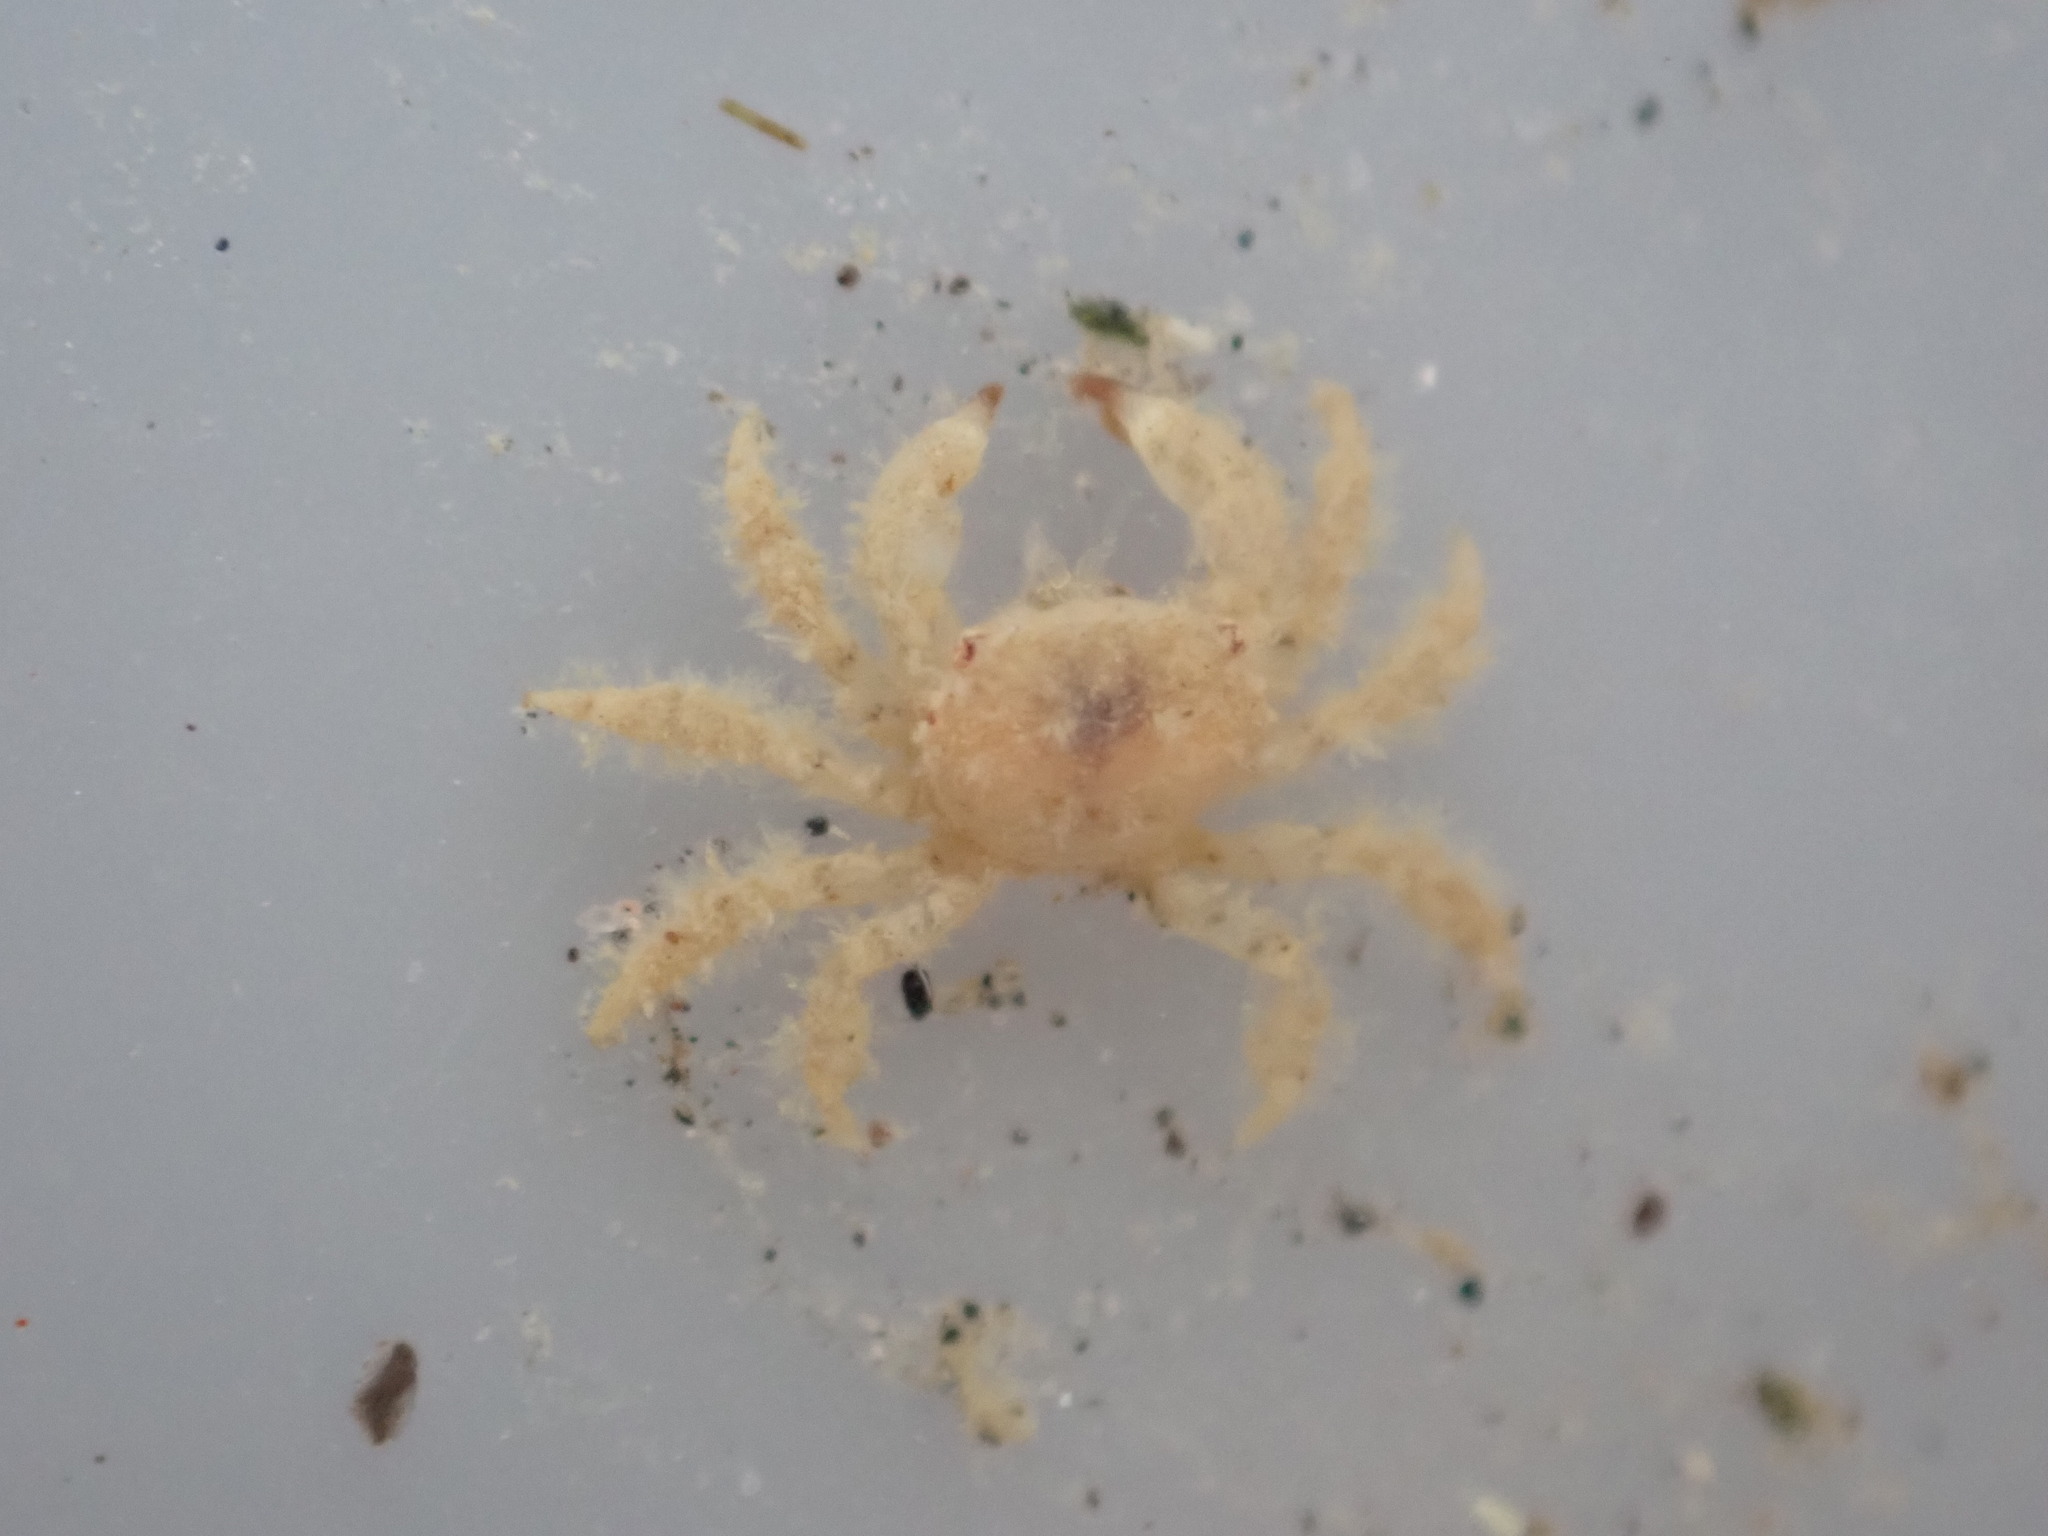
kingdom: Animalia
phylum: Arthropoda
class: Malacostraca
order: Decapoda
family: Pilumnidae
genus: Pilumnus
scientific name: Pilumnus lumpinus
